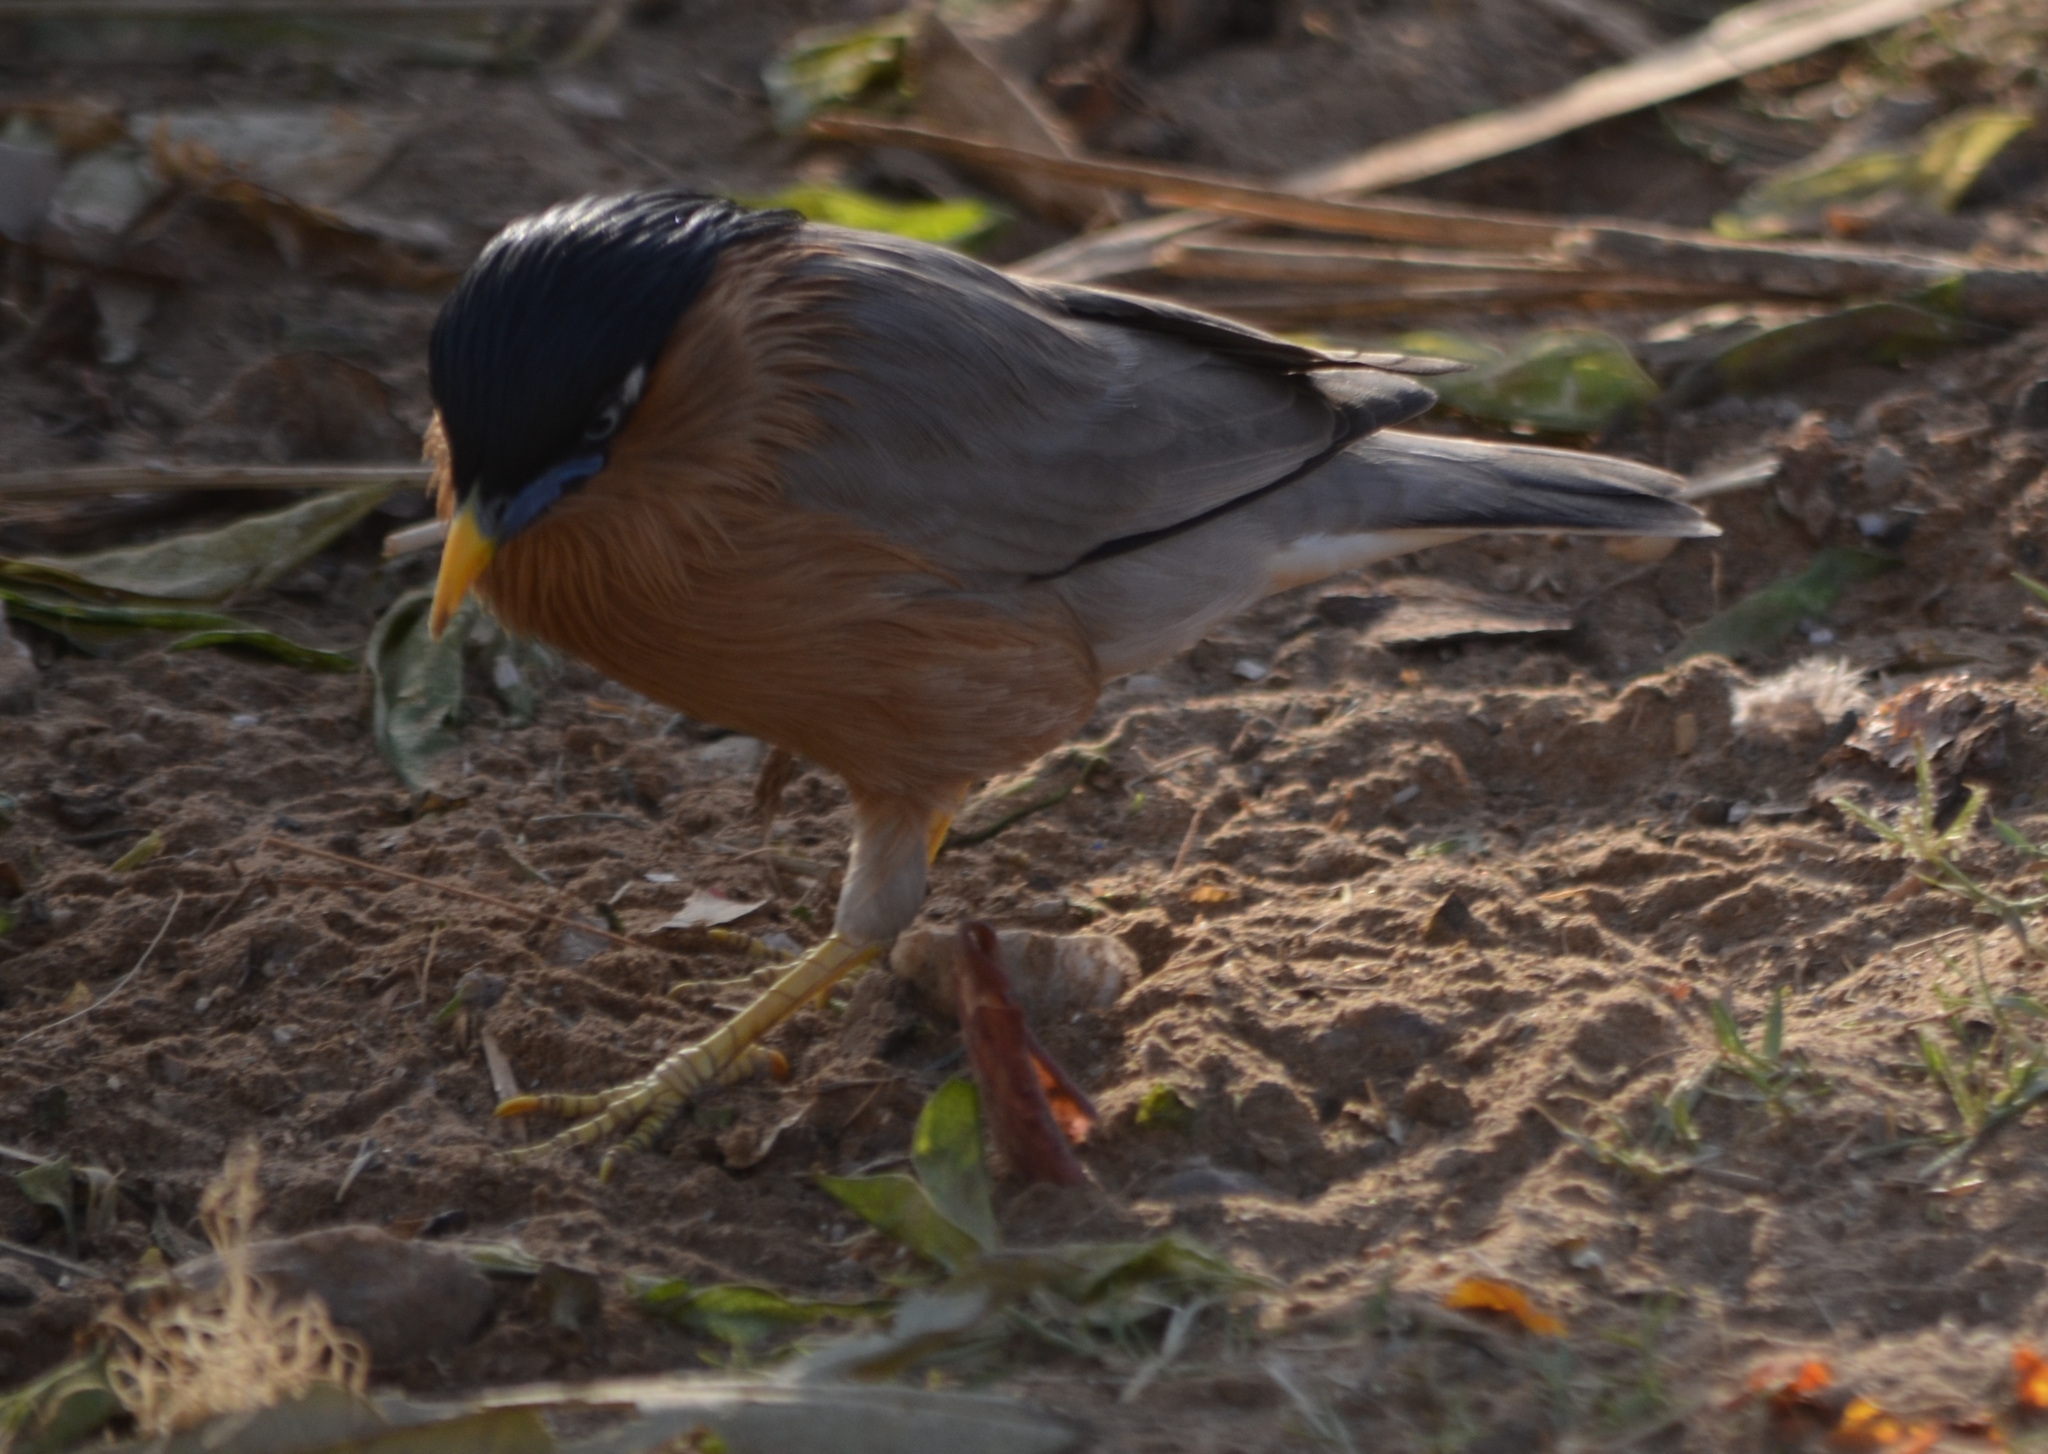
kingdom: Animalia
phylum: Chordata
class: Aves
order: Passeriformes
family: Sturnidae
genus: Sturnia
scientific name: Sturnia pagodarum
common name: Brahminy starling
